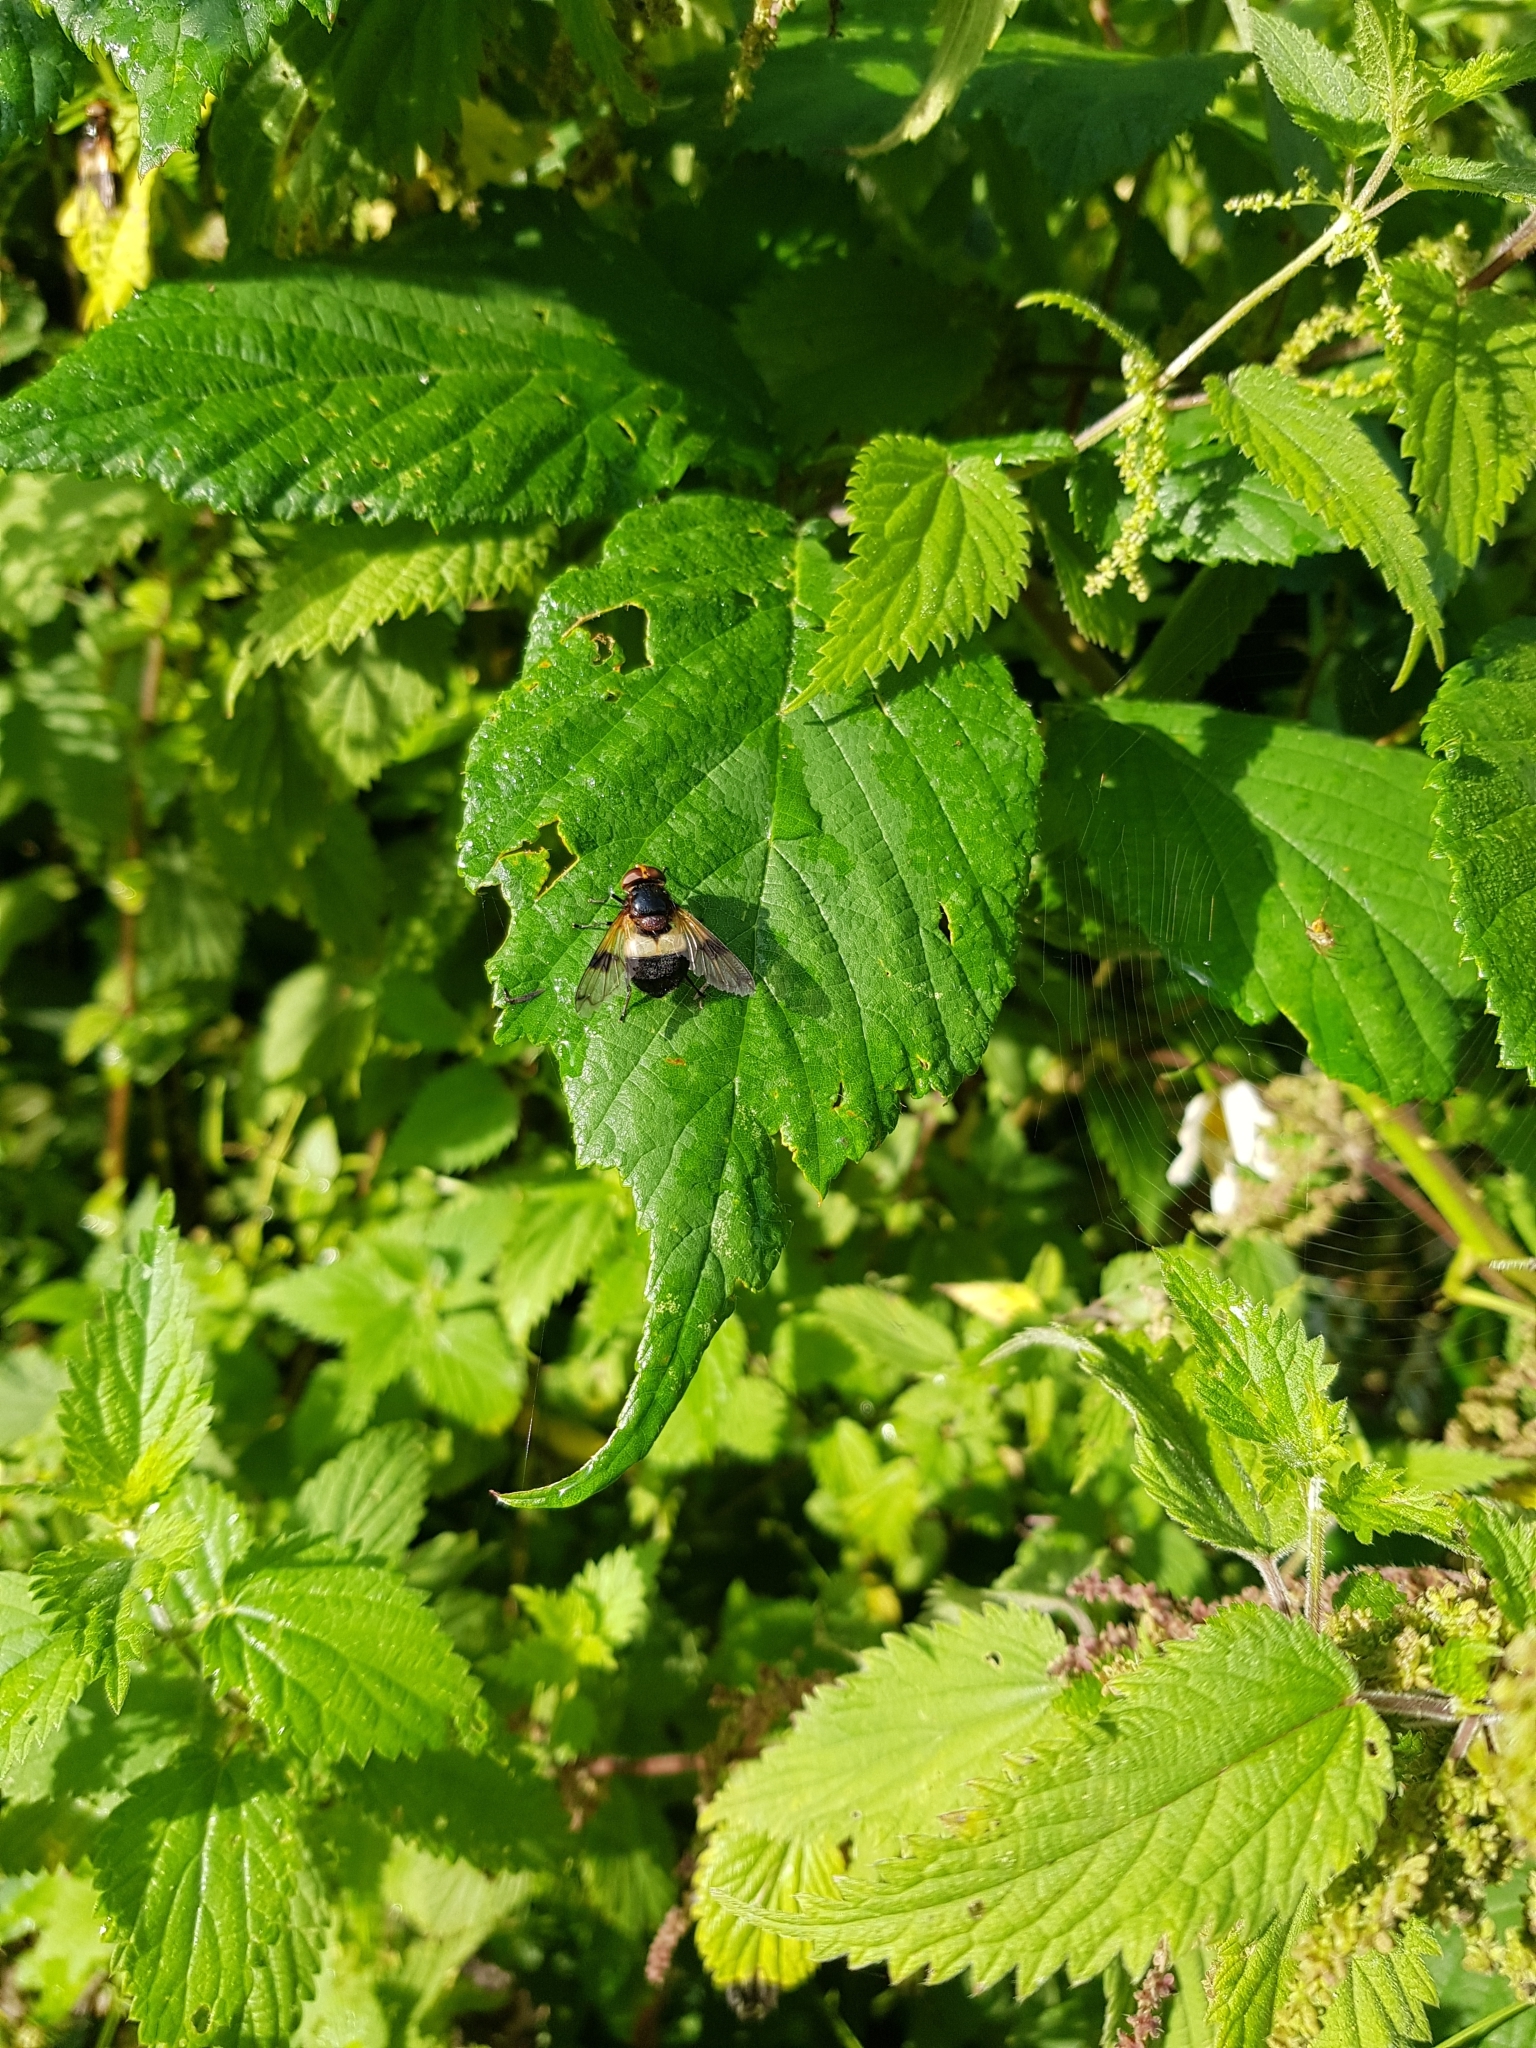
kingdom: Animalia
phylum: Arthropoda
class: Insecta
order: Diptera
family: Syrphidae
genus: Volucella
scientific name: Volucella pellucens
